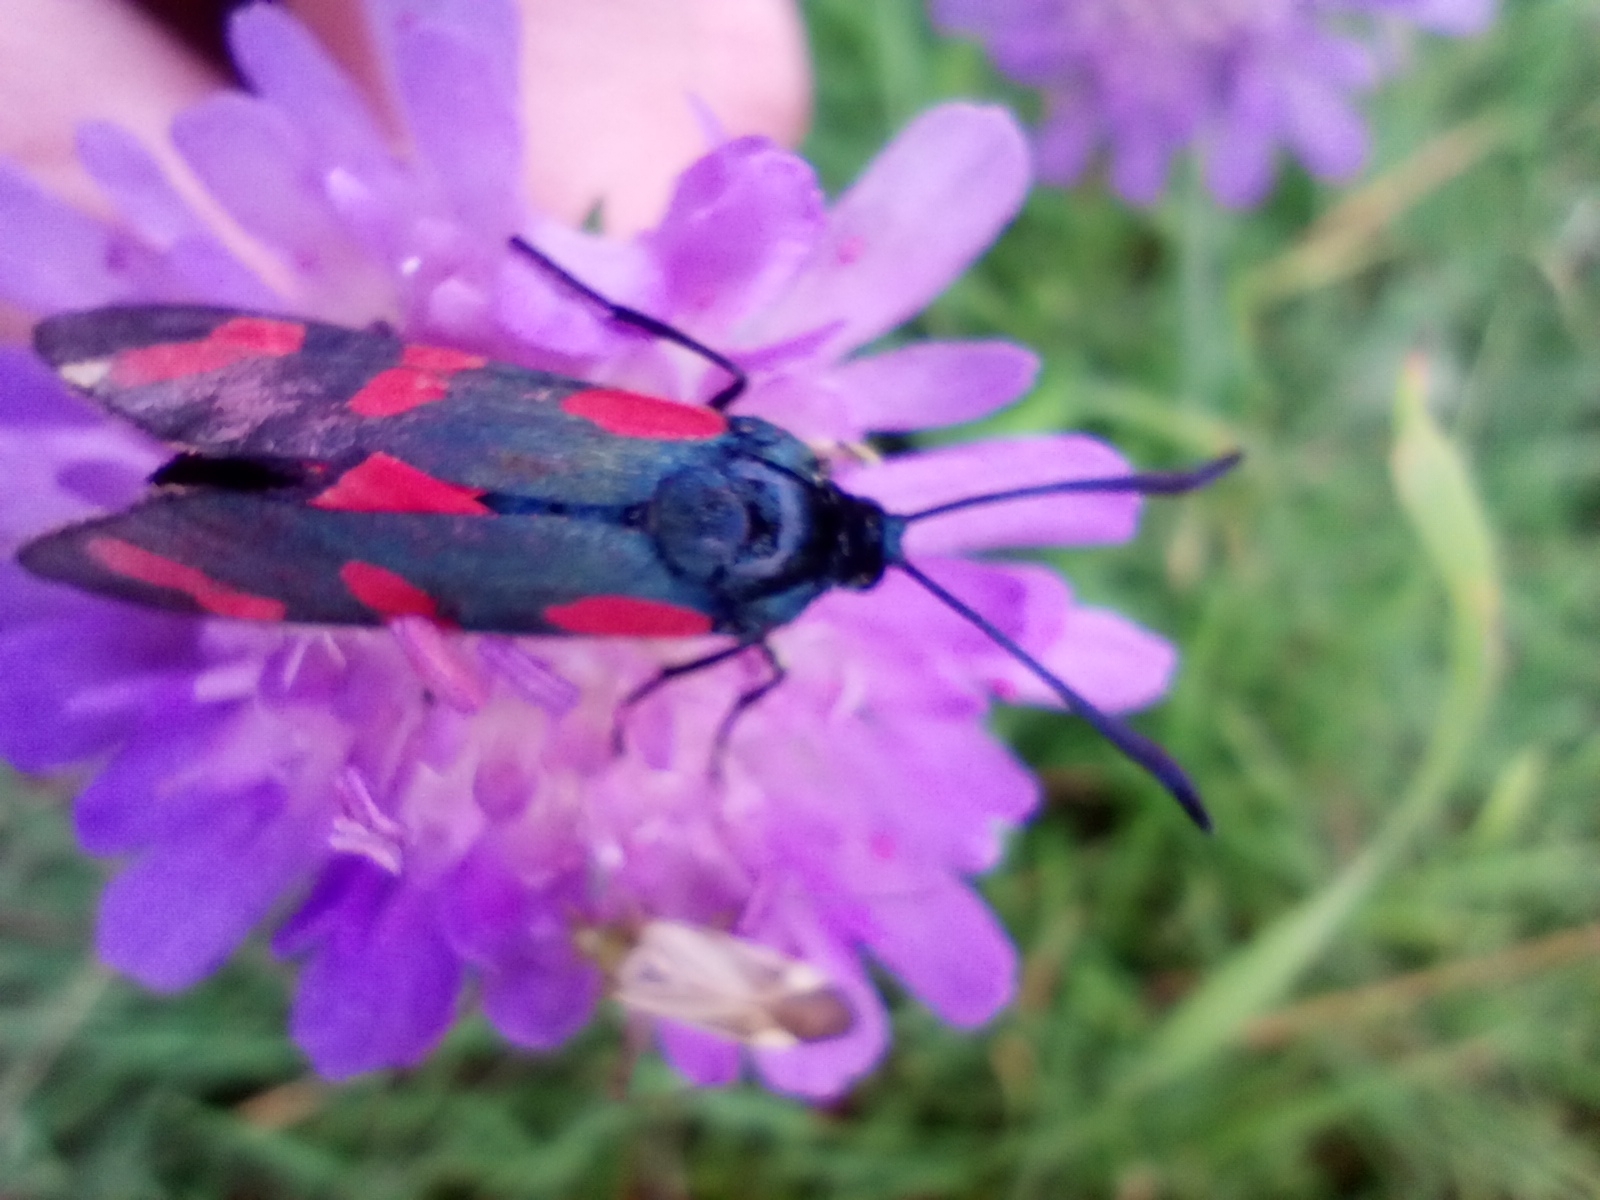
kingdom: Animalia
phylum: Arthropoda
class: Insecta
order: Lepidoptera
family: Zygaenidae
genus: Zygaena
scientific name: Zygaena filipendulae
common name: Six-spot burnet
